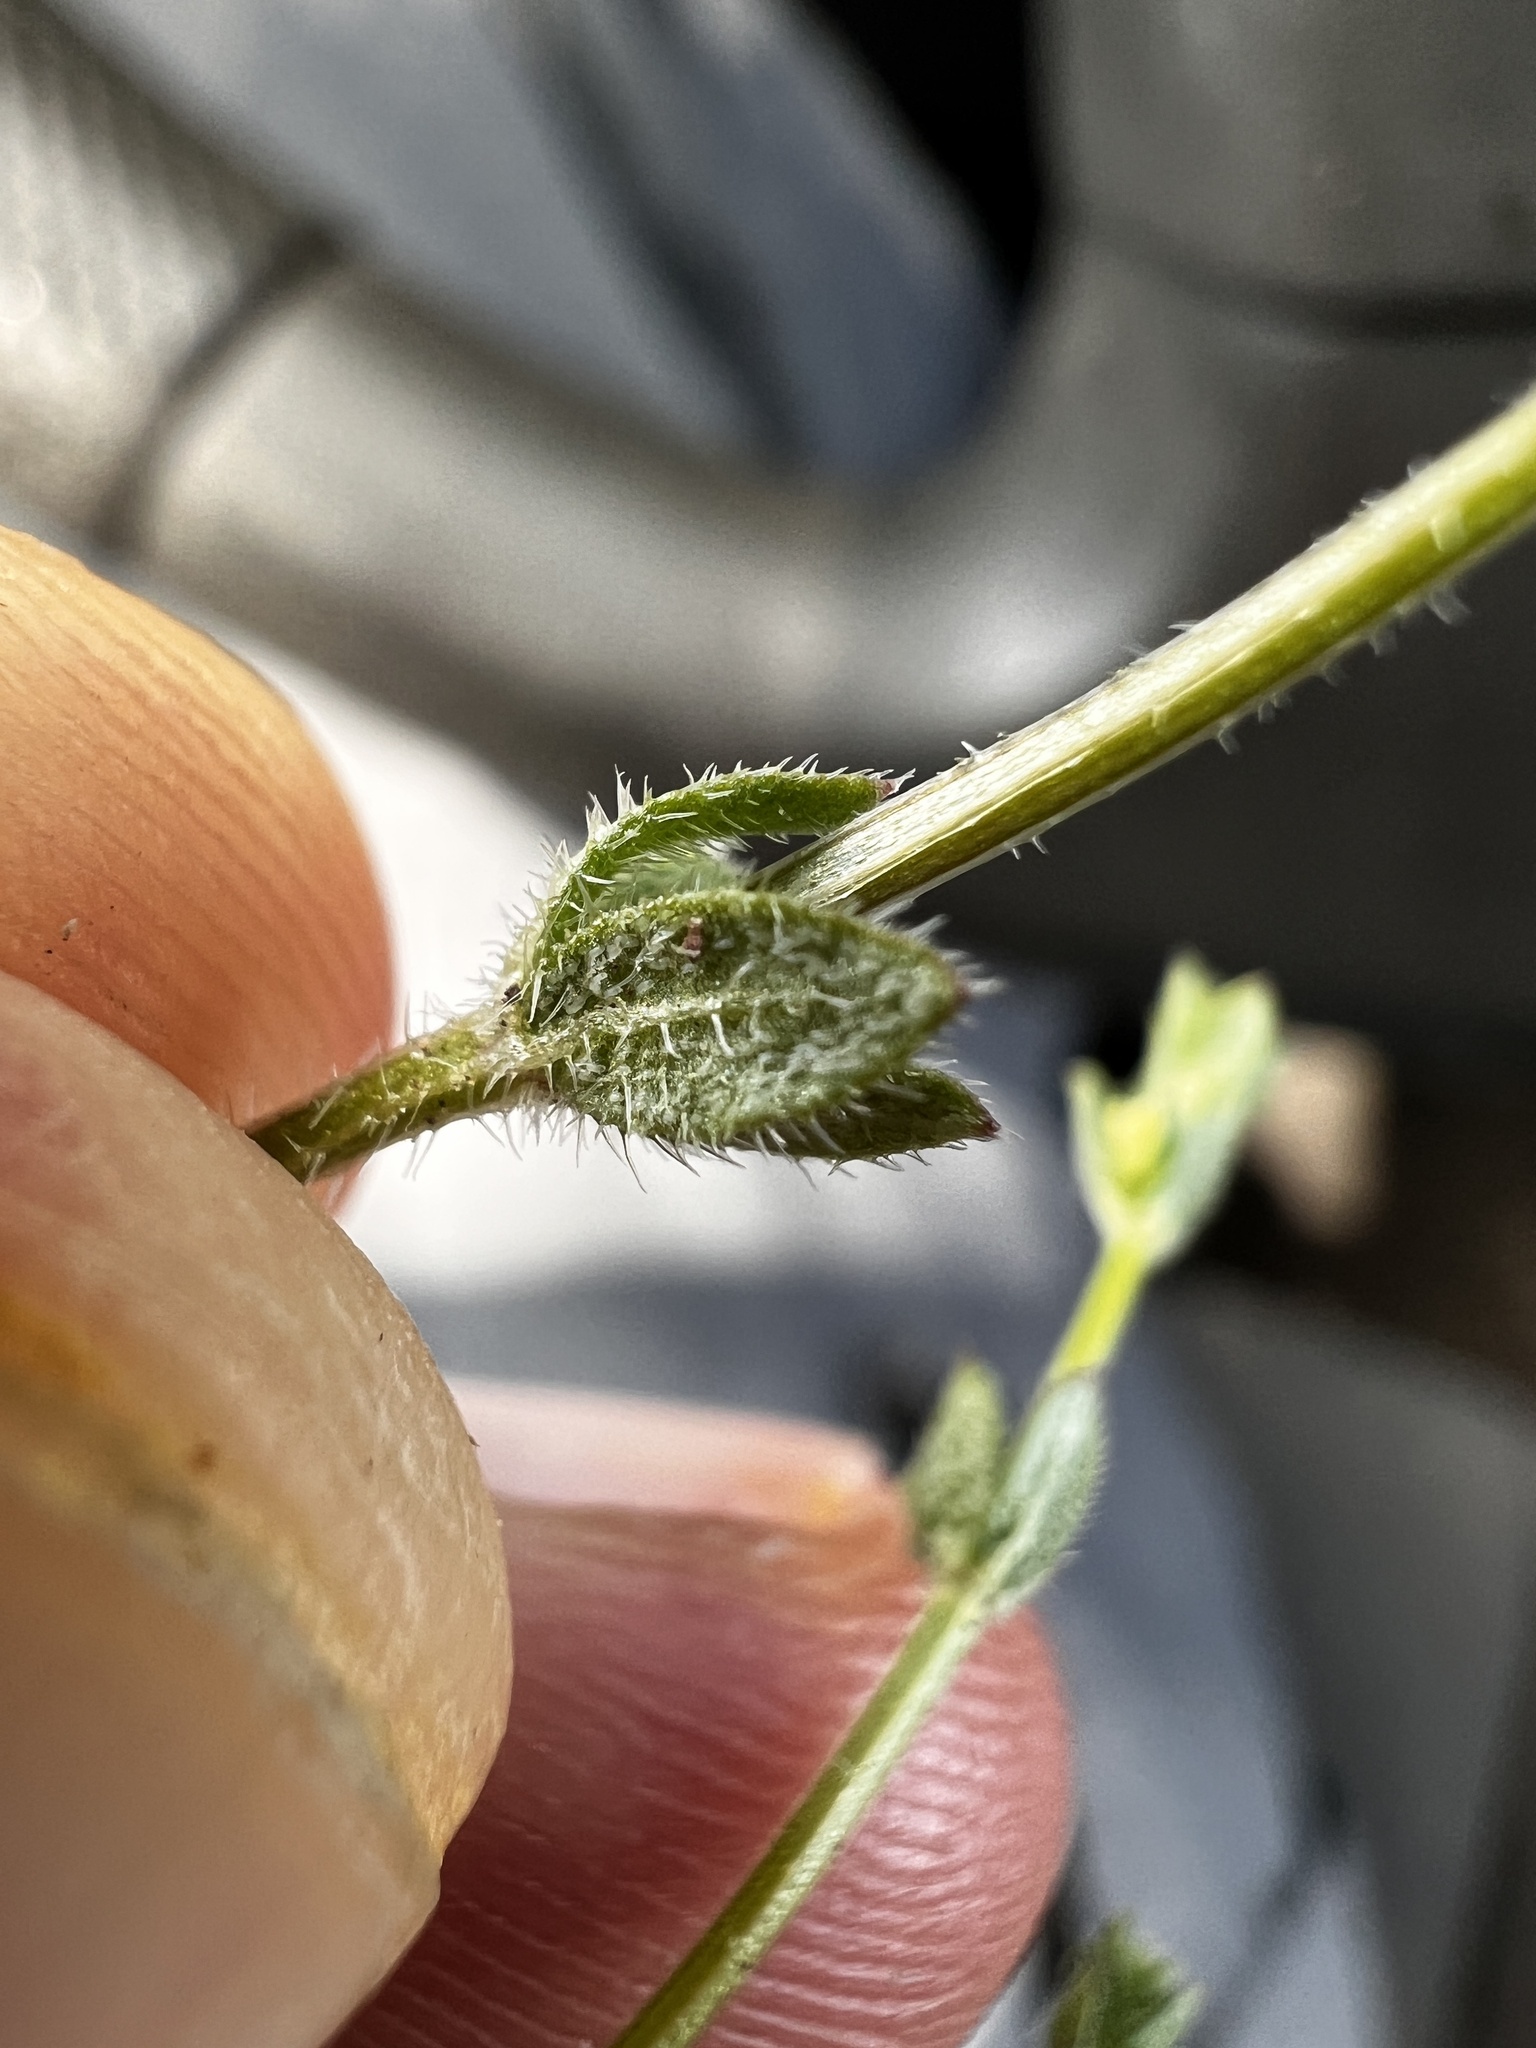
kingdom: Plantae
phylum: Tracheophyta
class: Magnoliopsida
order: Gentianales
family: Rubiaceae
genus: Galium
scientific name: Galium virgatum
